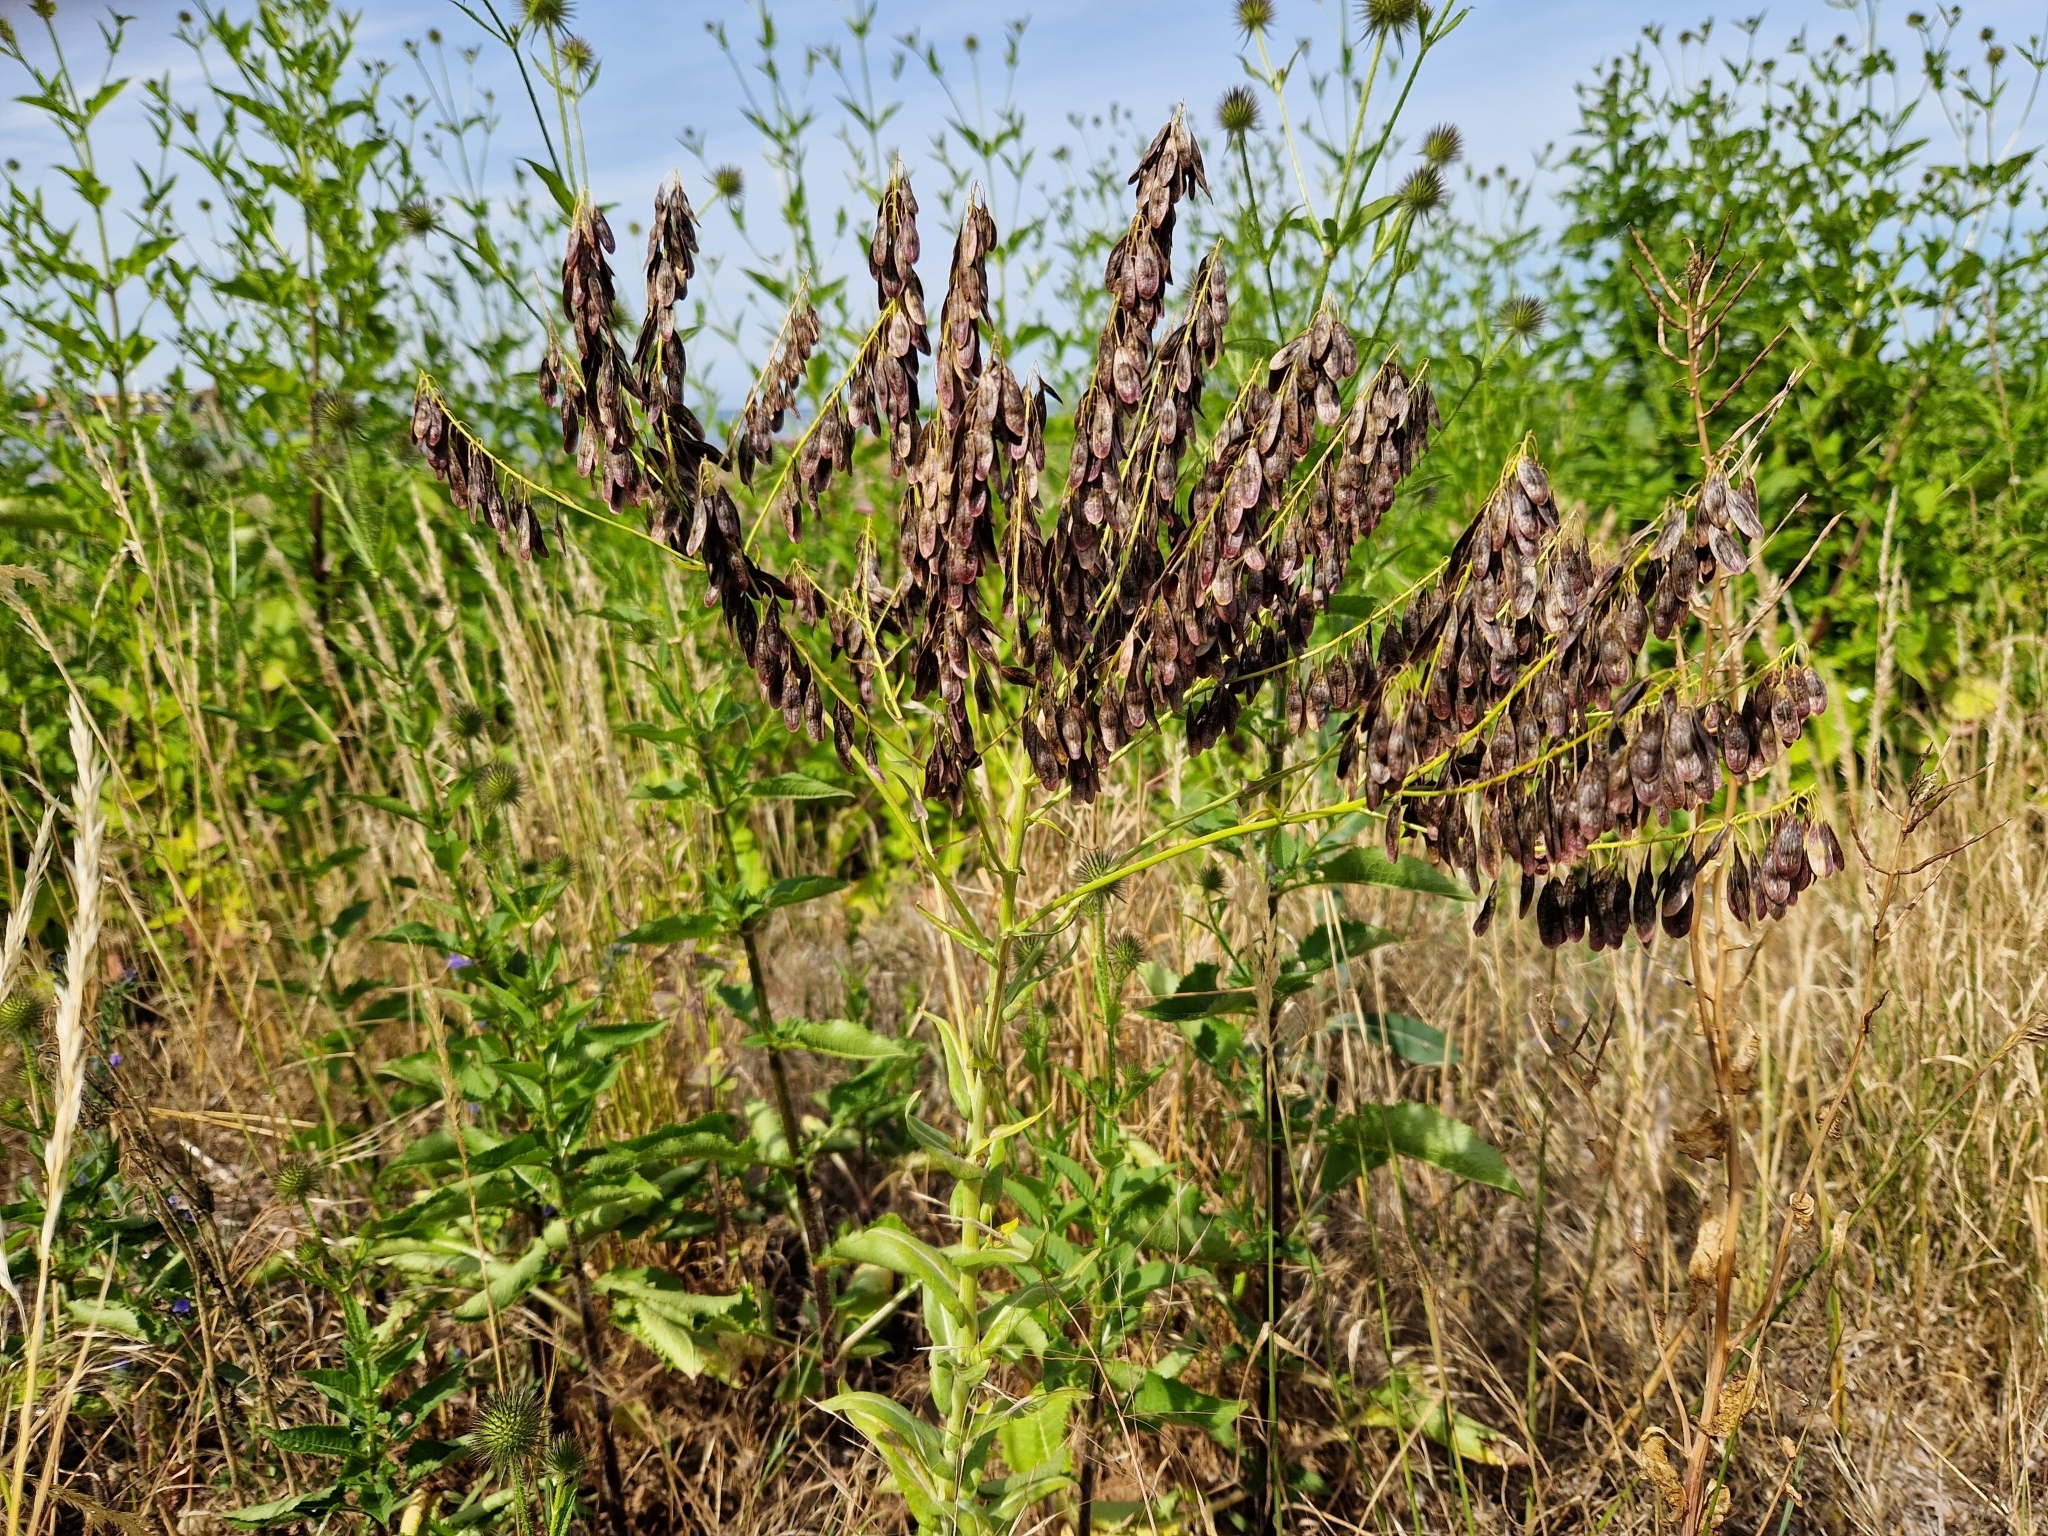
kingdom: Plantae
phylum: Tracheophyta
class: Magnoliopsida
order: Brassicales
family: Brassicaceae
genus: Isatis
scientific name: Isatis tinctoria
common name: Woad
